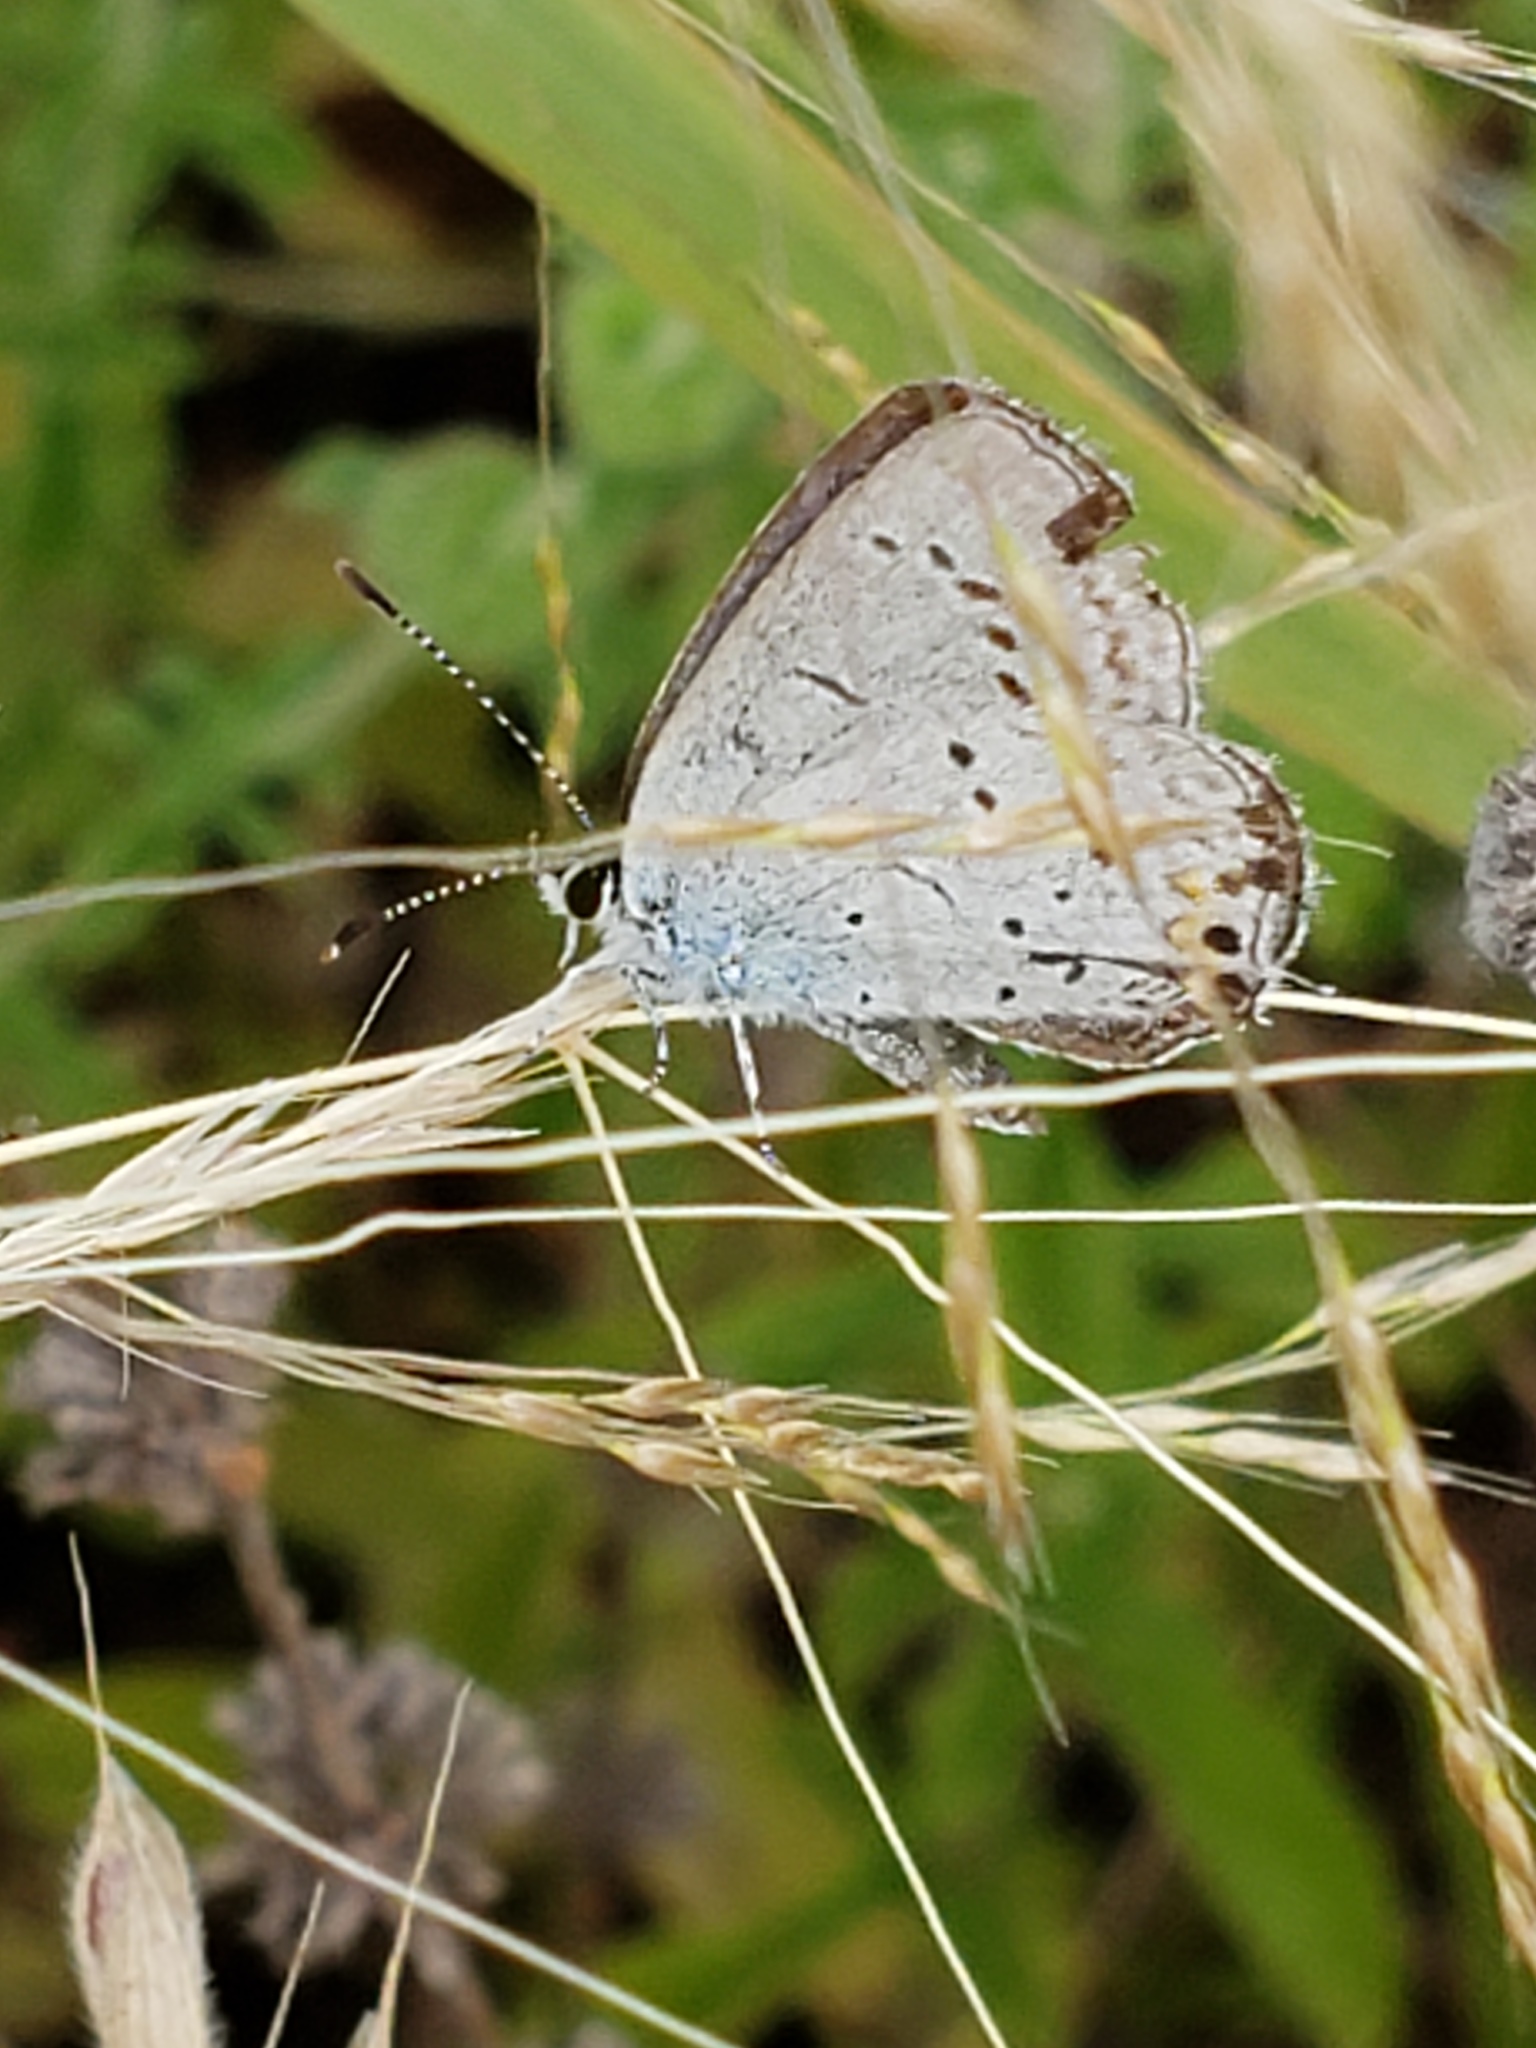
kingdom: Animalia
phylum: Arthropoda
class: Insecta
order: Lepidoptera
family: Lycaenidae
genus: Elkalyce
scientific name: Elkalyce amyntula
